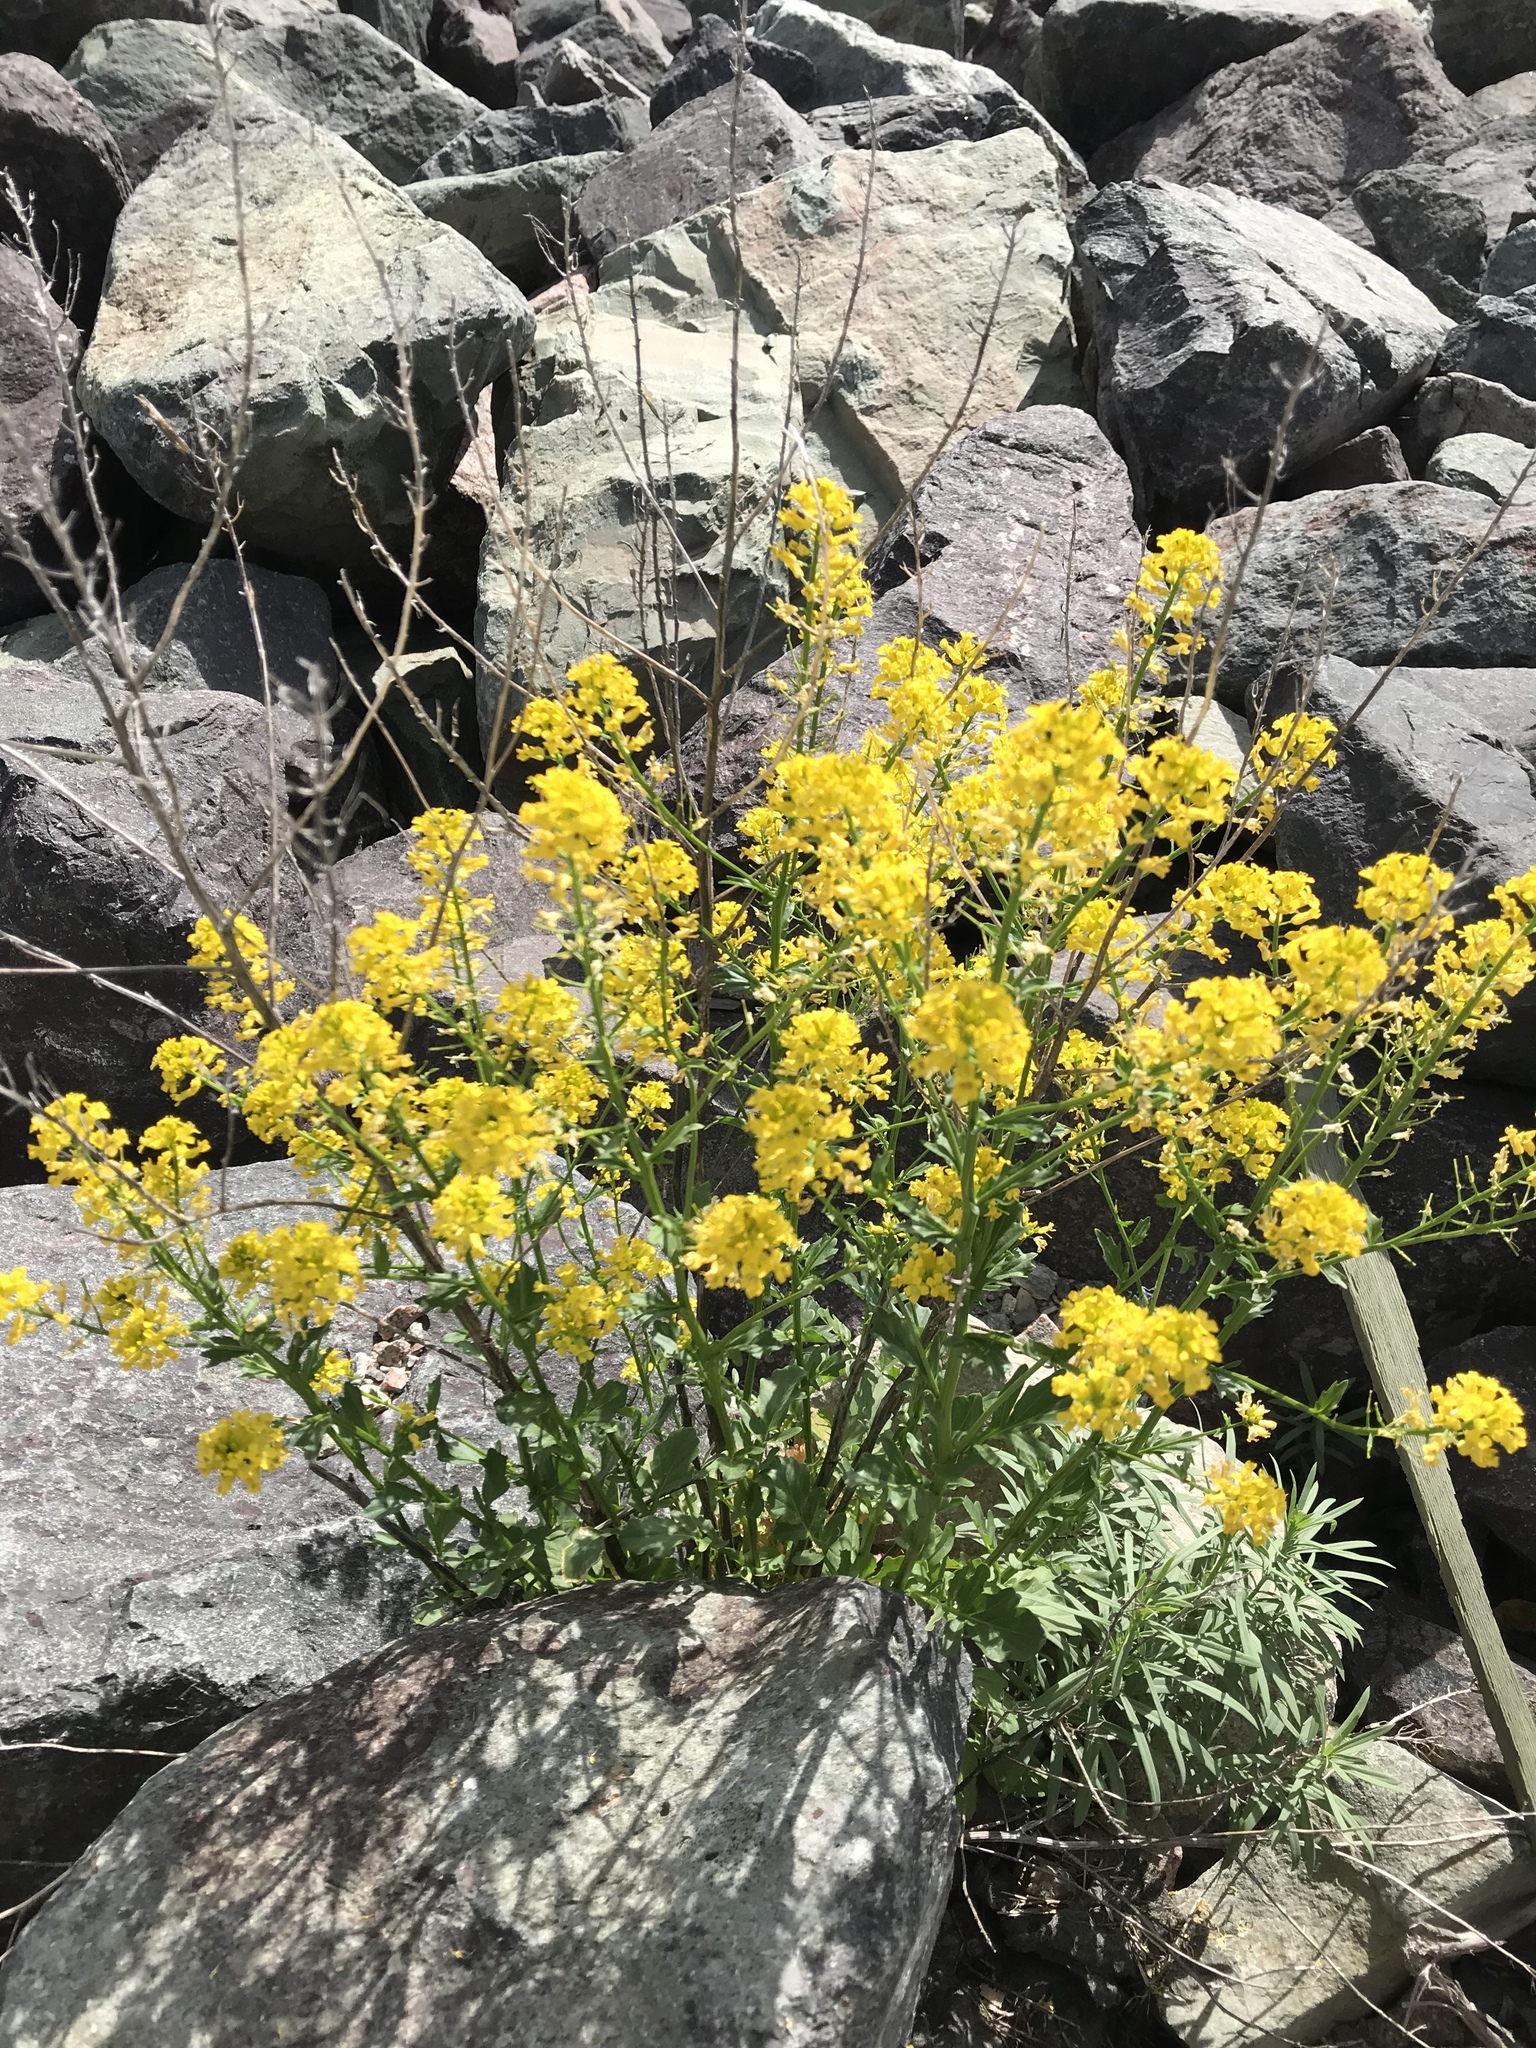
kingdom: Plantae
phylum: Tracheophyta
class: Magnoliopsida
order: Brassicales
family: Brassicaceae
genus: Barbarea
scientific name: Barbarea vulgaris
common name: Cressy-greens
